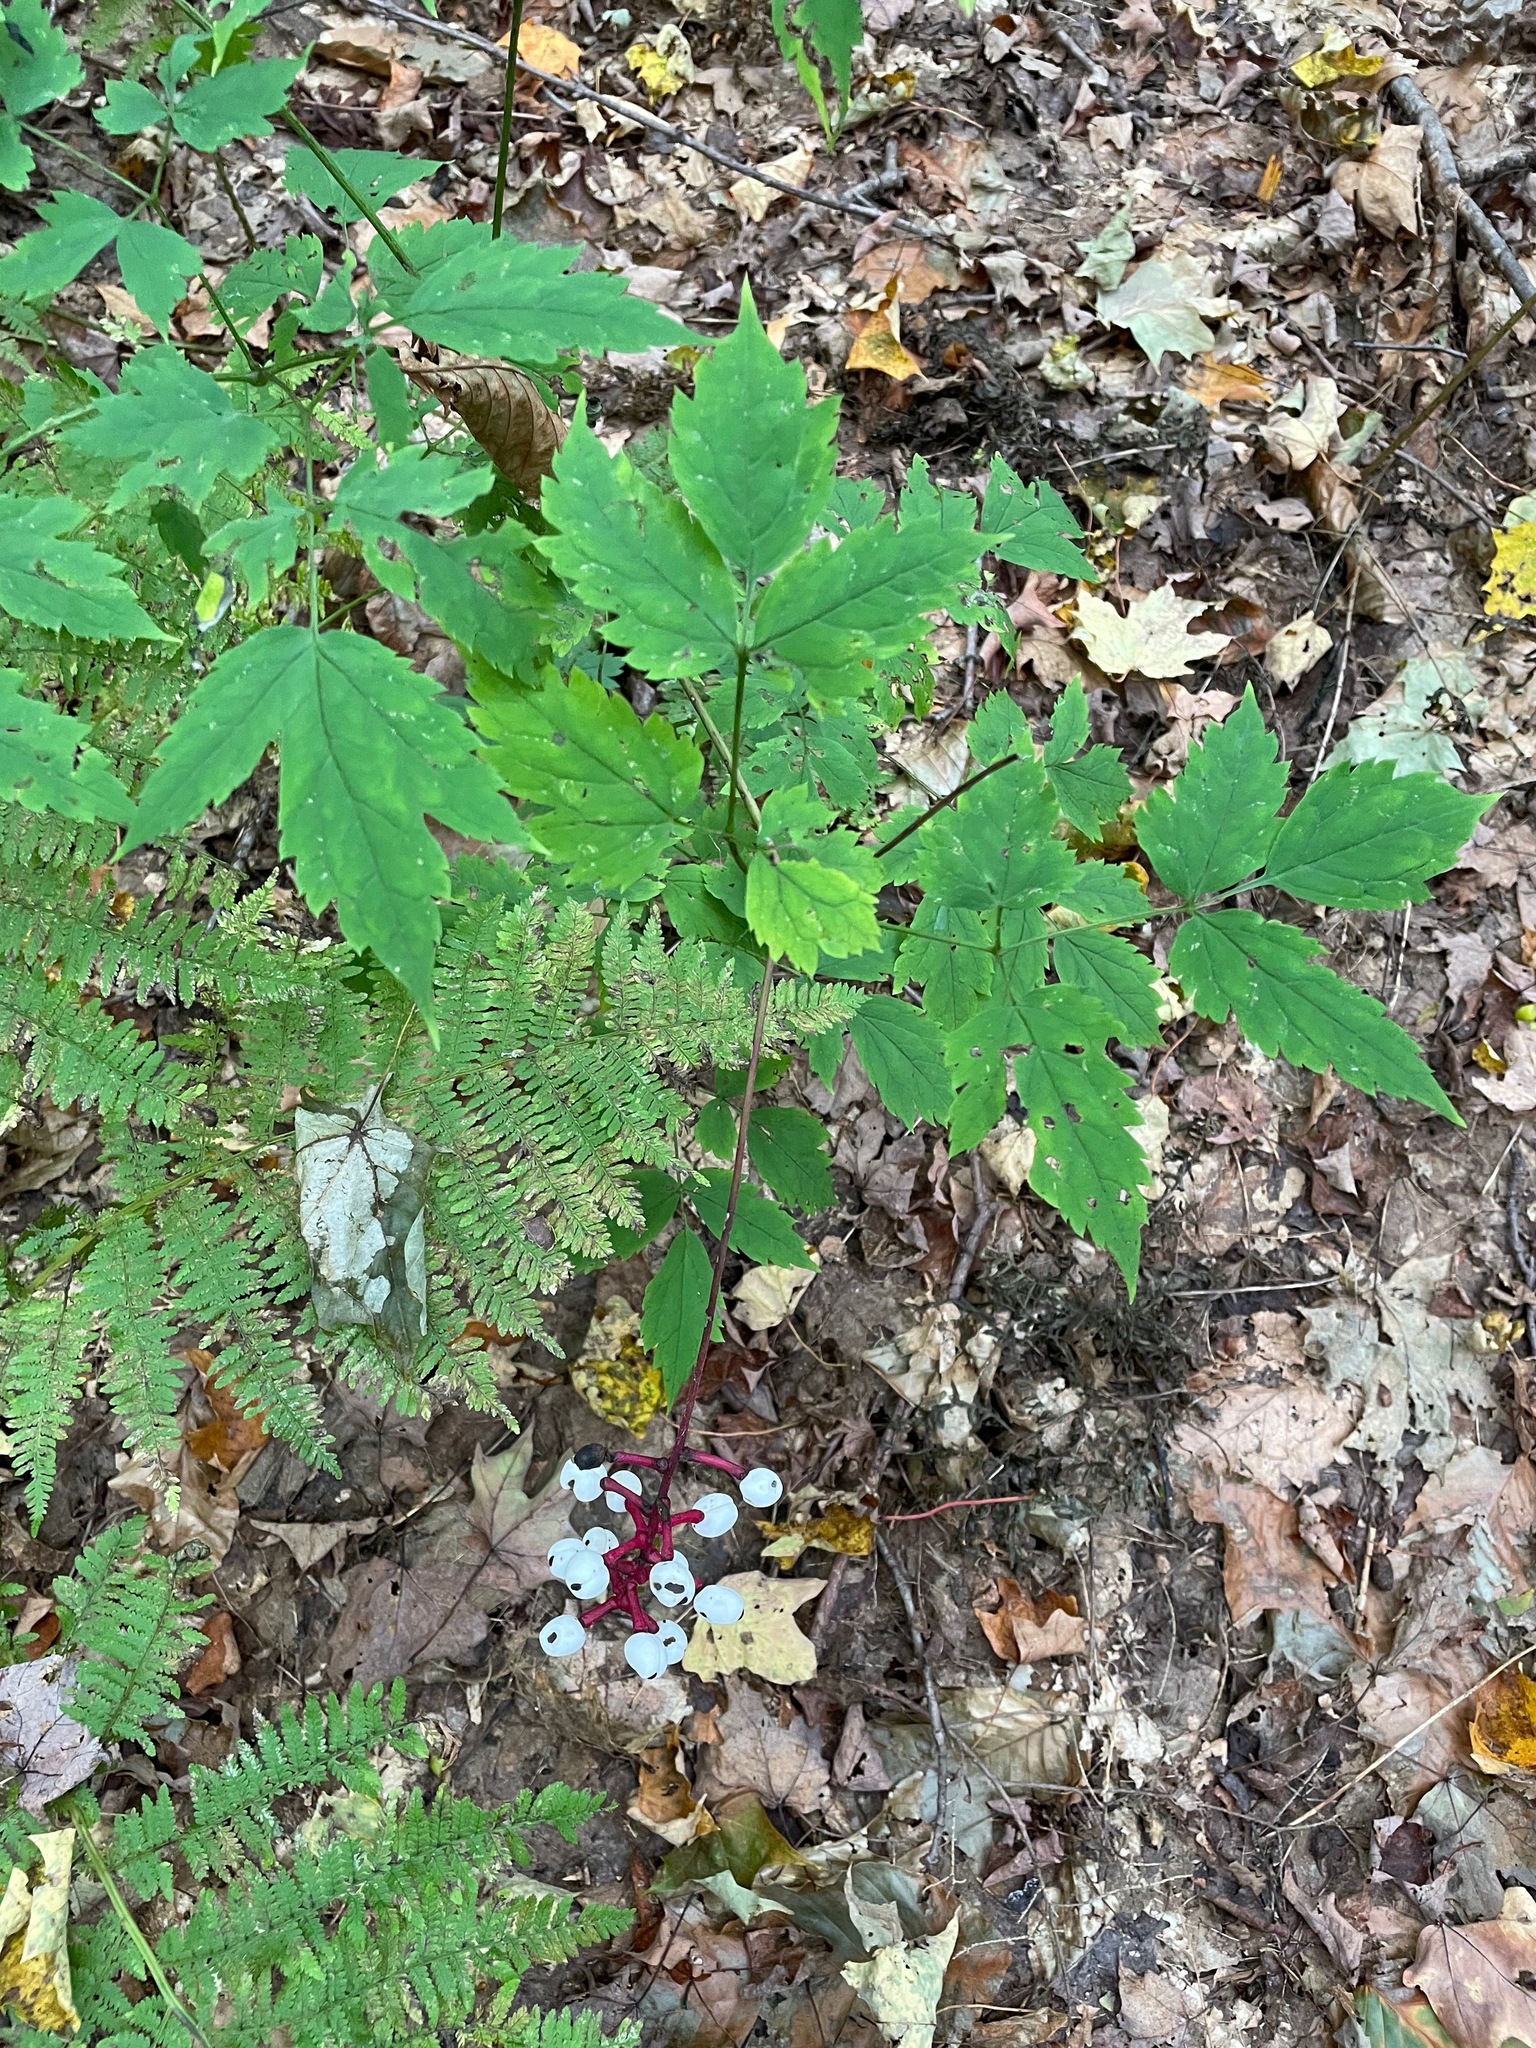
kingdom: Plantae
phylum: Tracheophyta
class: Magnoliopsida
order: Ranunculales
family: Ranunculaceae
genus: Actaea
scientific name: Actaea pachypoda
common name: Doll's-eyes
